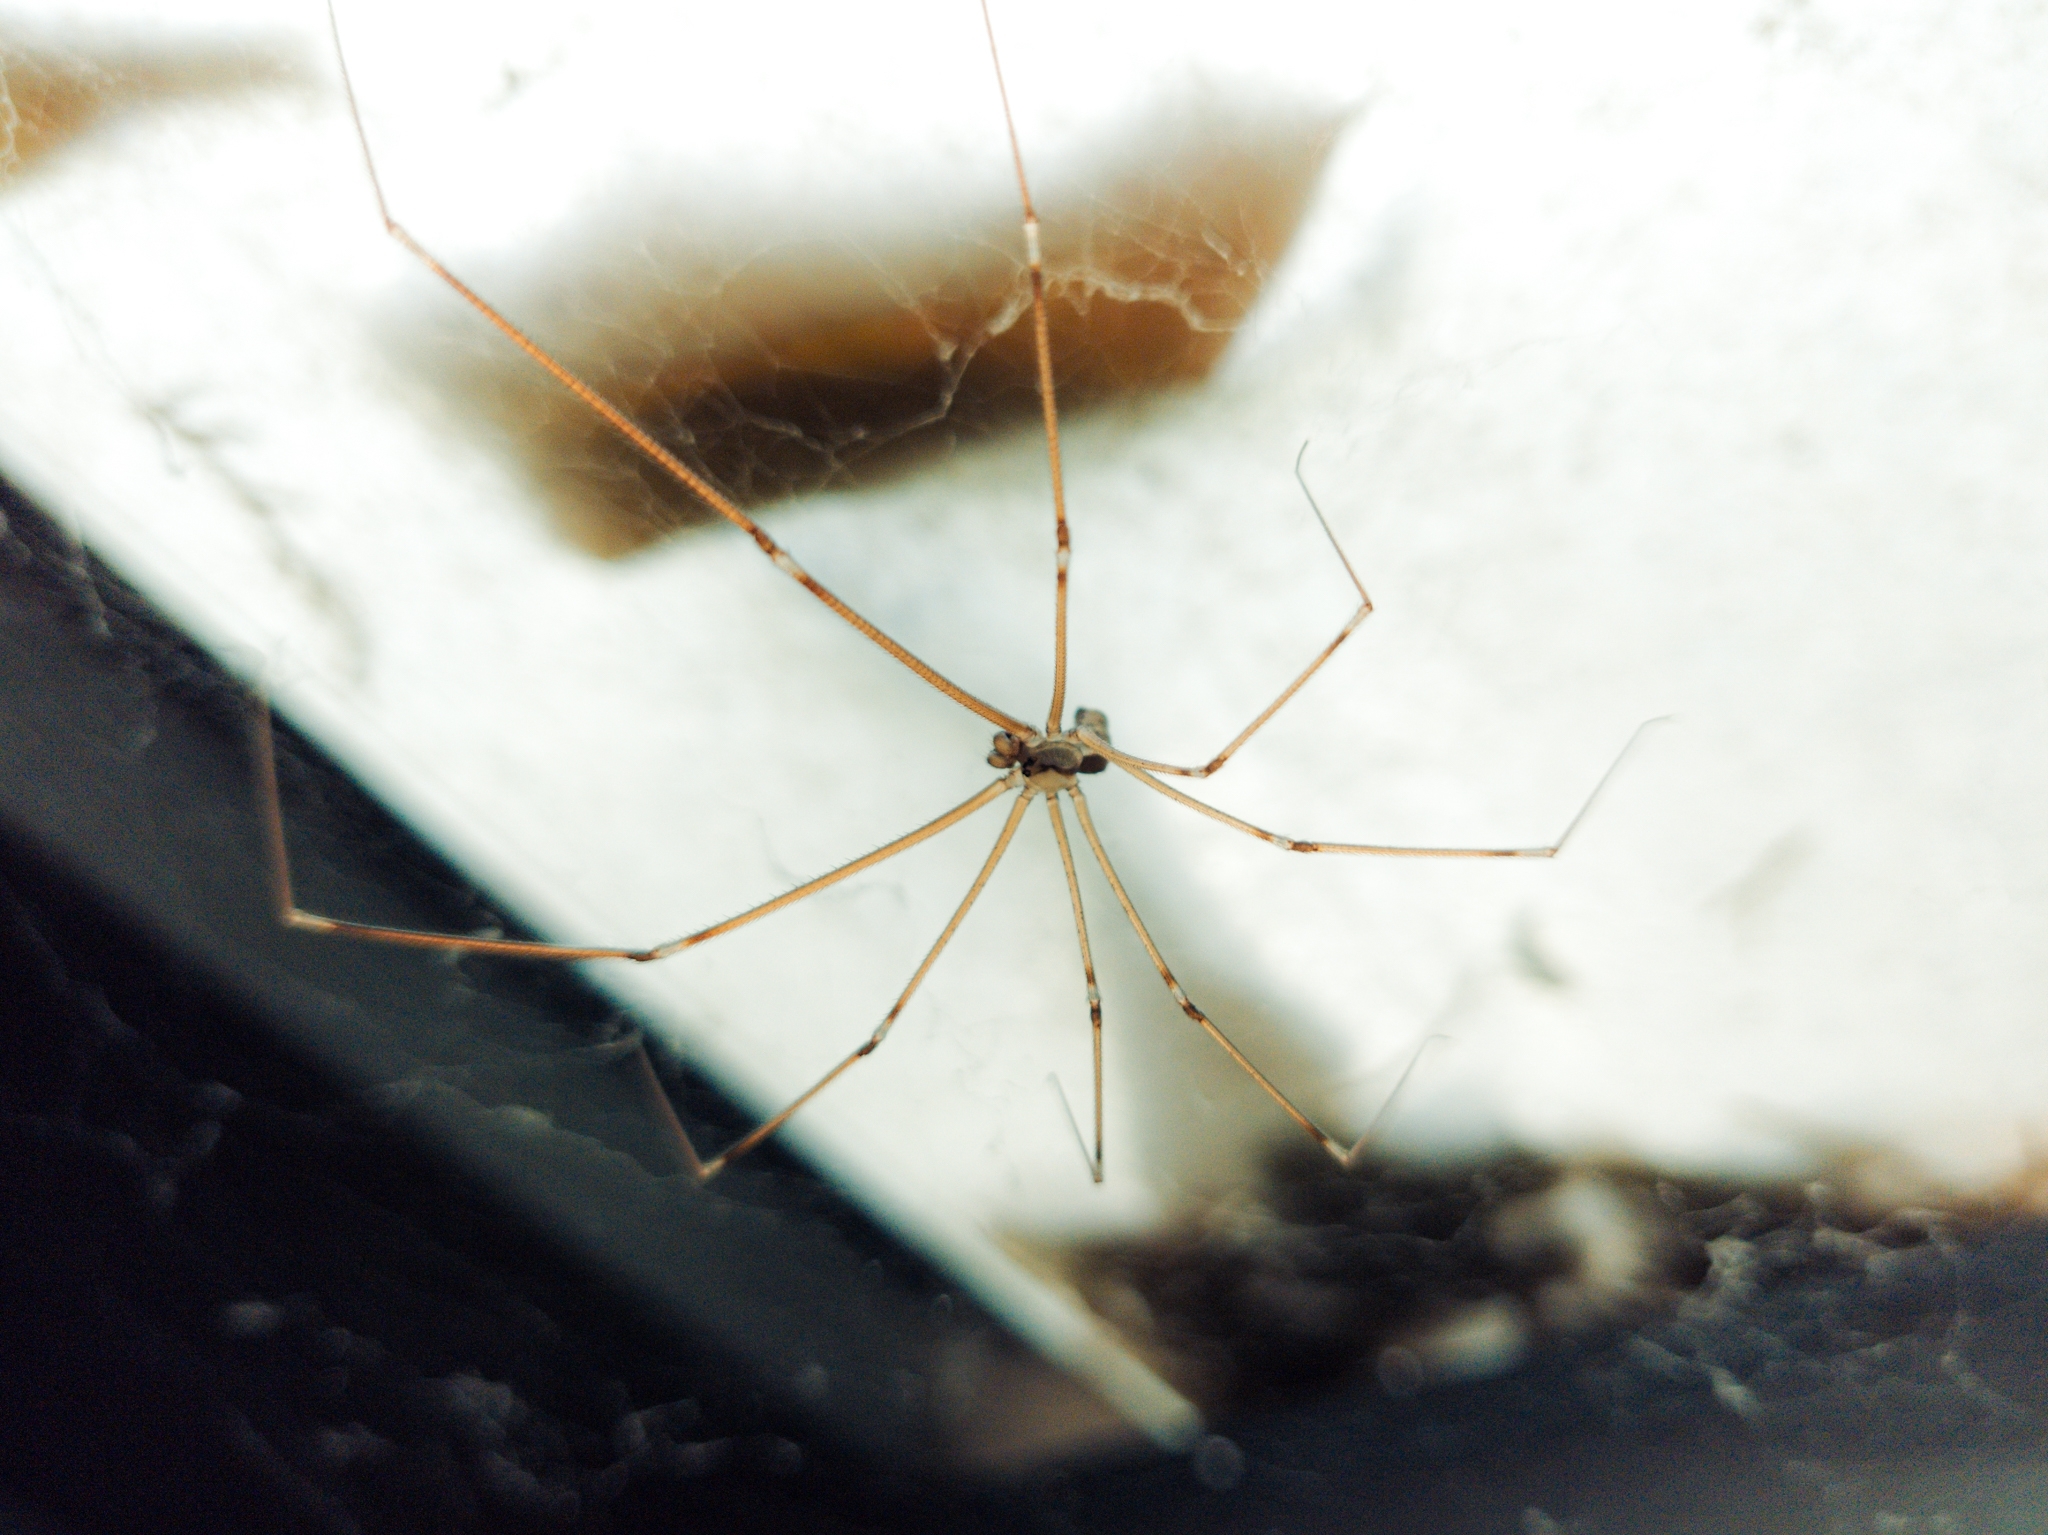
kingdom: Animalia
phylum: Arthropoda
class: Arachnida
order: Araneae
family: Pholcidae
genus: Holocnemus
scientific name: Holocnemus pluchei
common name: Marbled cellar spider
